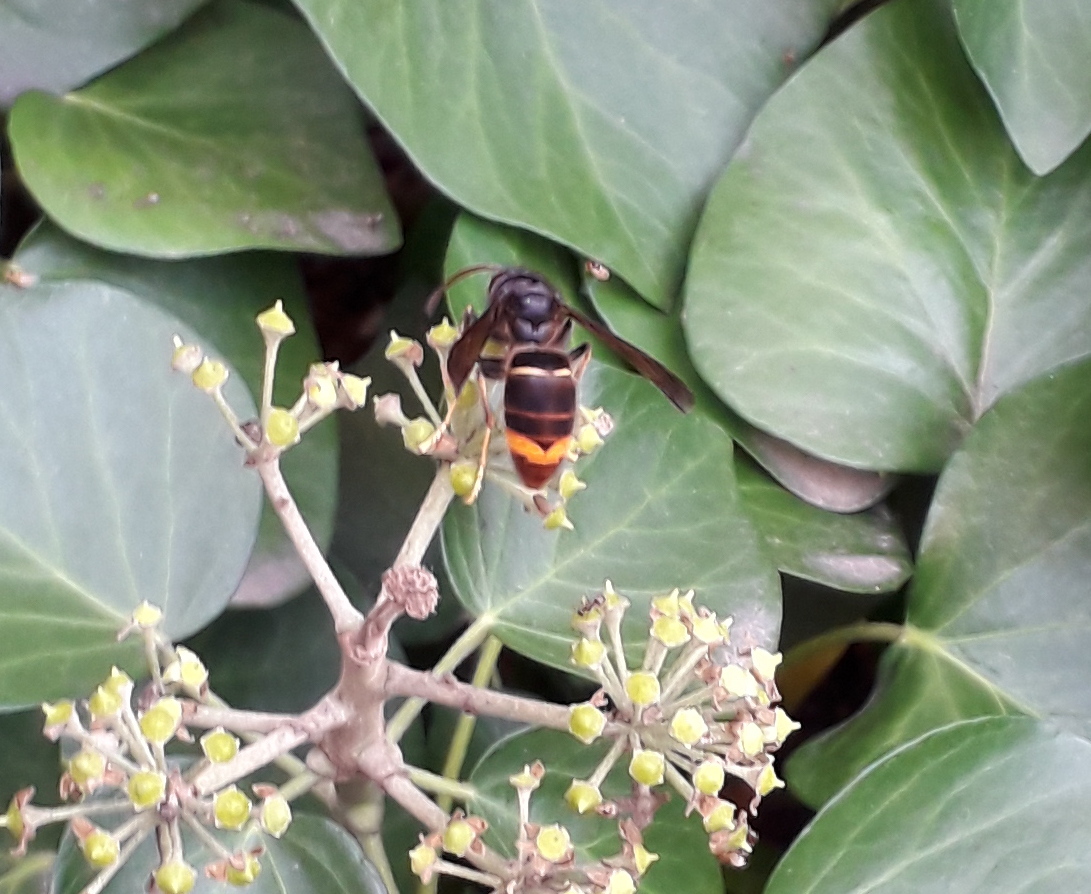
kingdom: Animalia
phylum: Arthropoda
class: Insecta
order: Hymenoptera
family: Vespidae
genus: Vespa
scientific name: Vespa velutina
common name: Asian hornet
